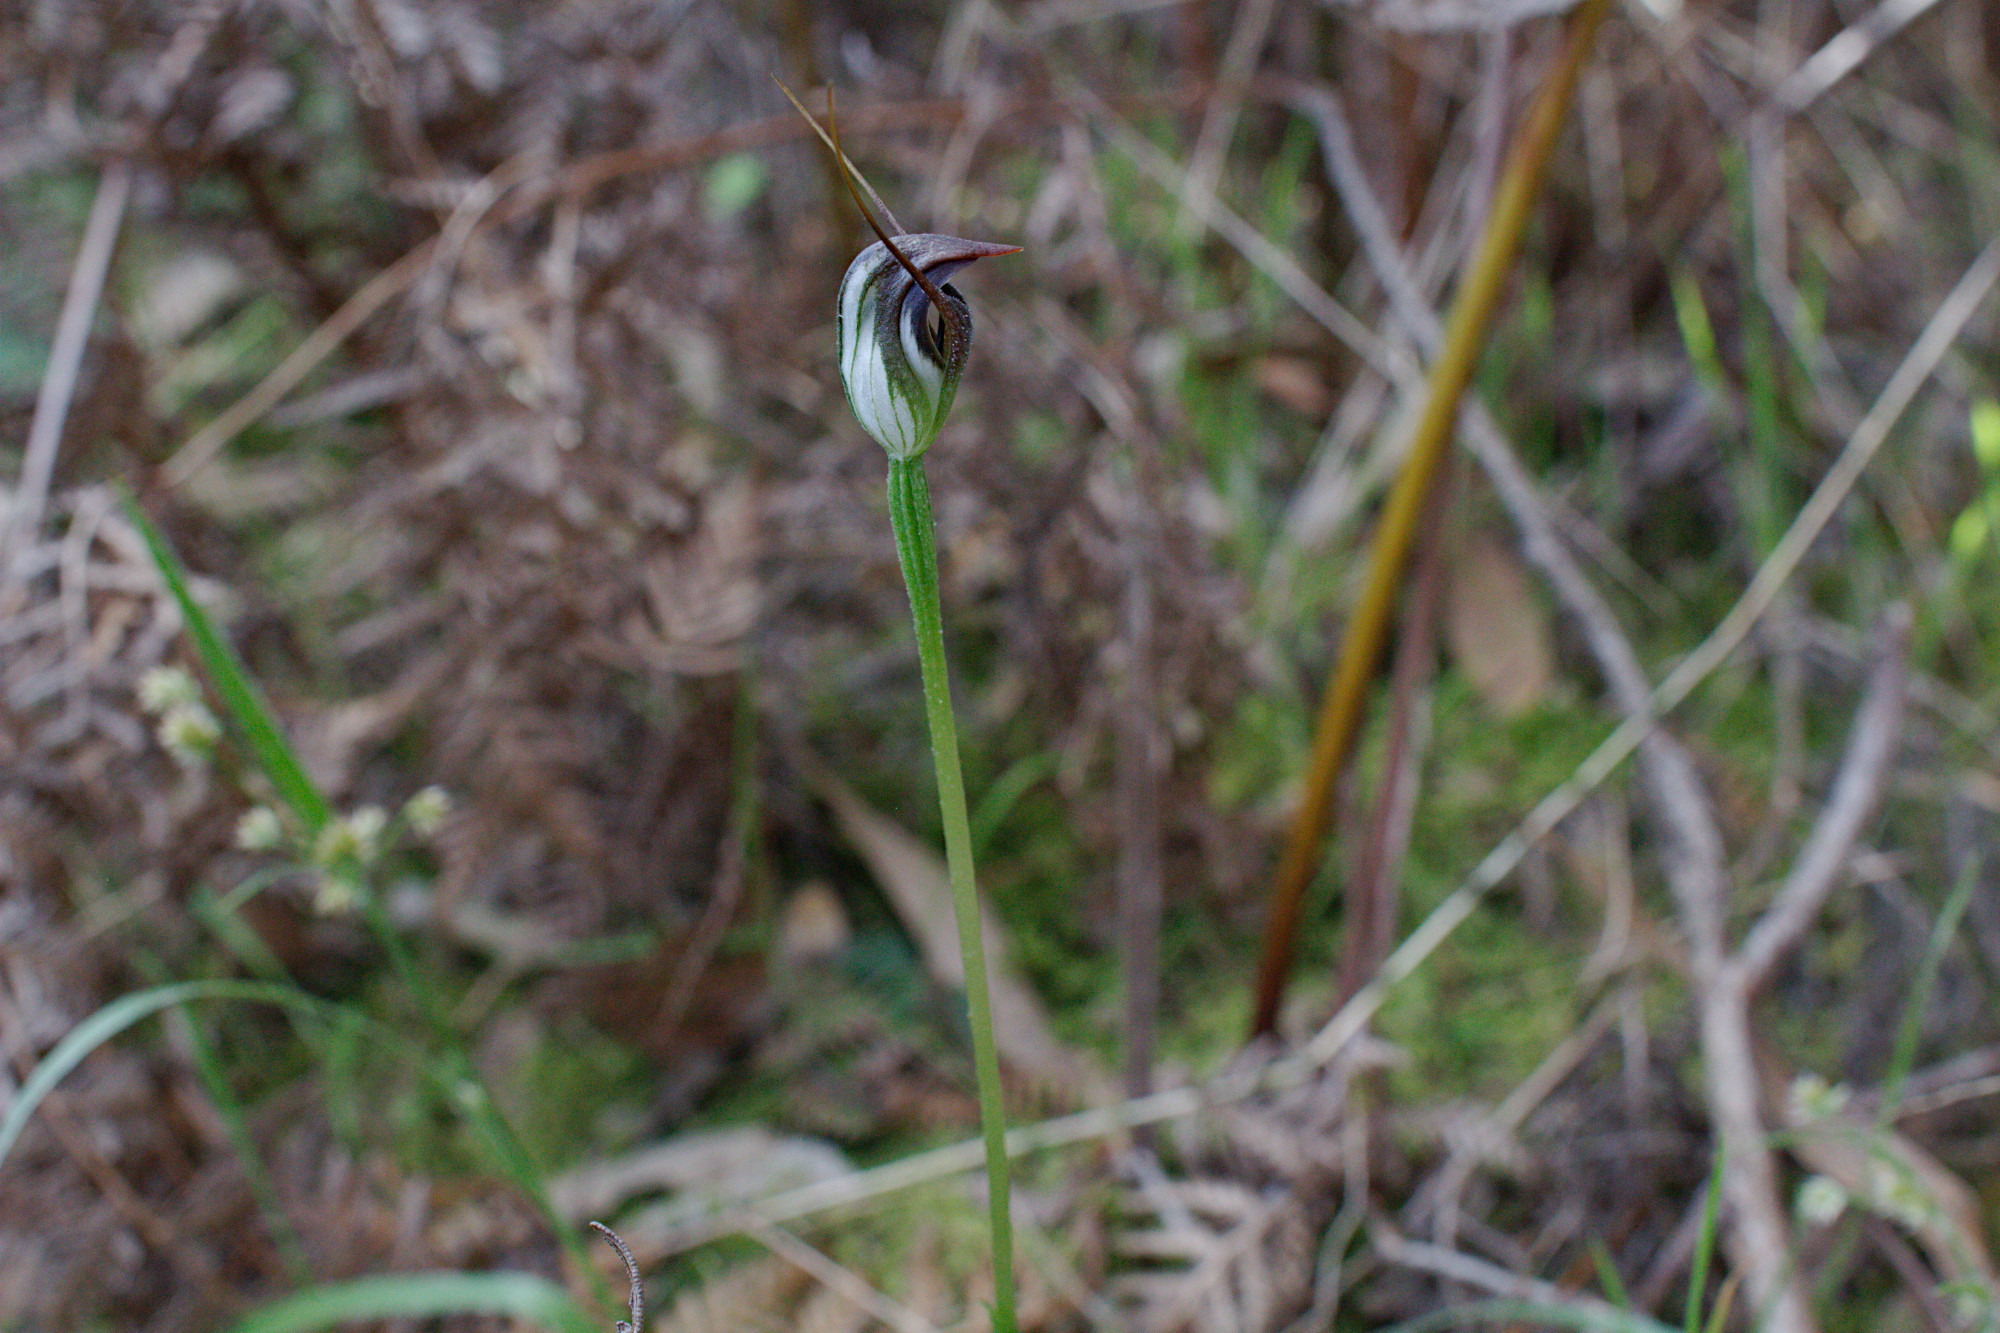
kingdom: Plantae
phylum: Tracheophyta
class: Liliopsida
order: Asparagales
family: Orchidaceae
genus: Pterostylis
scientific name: Pterostylis pedunculata
